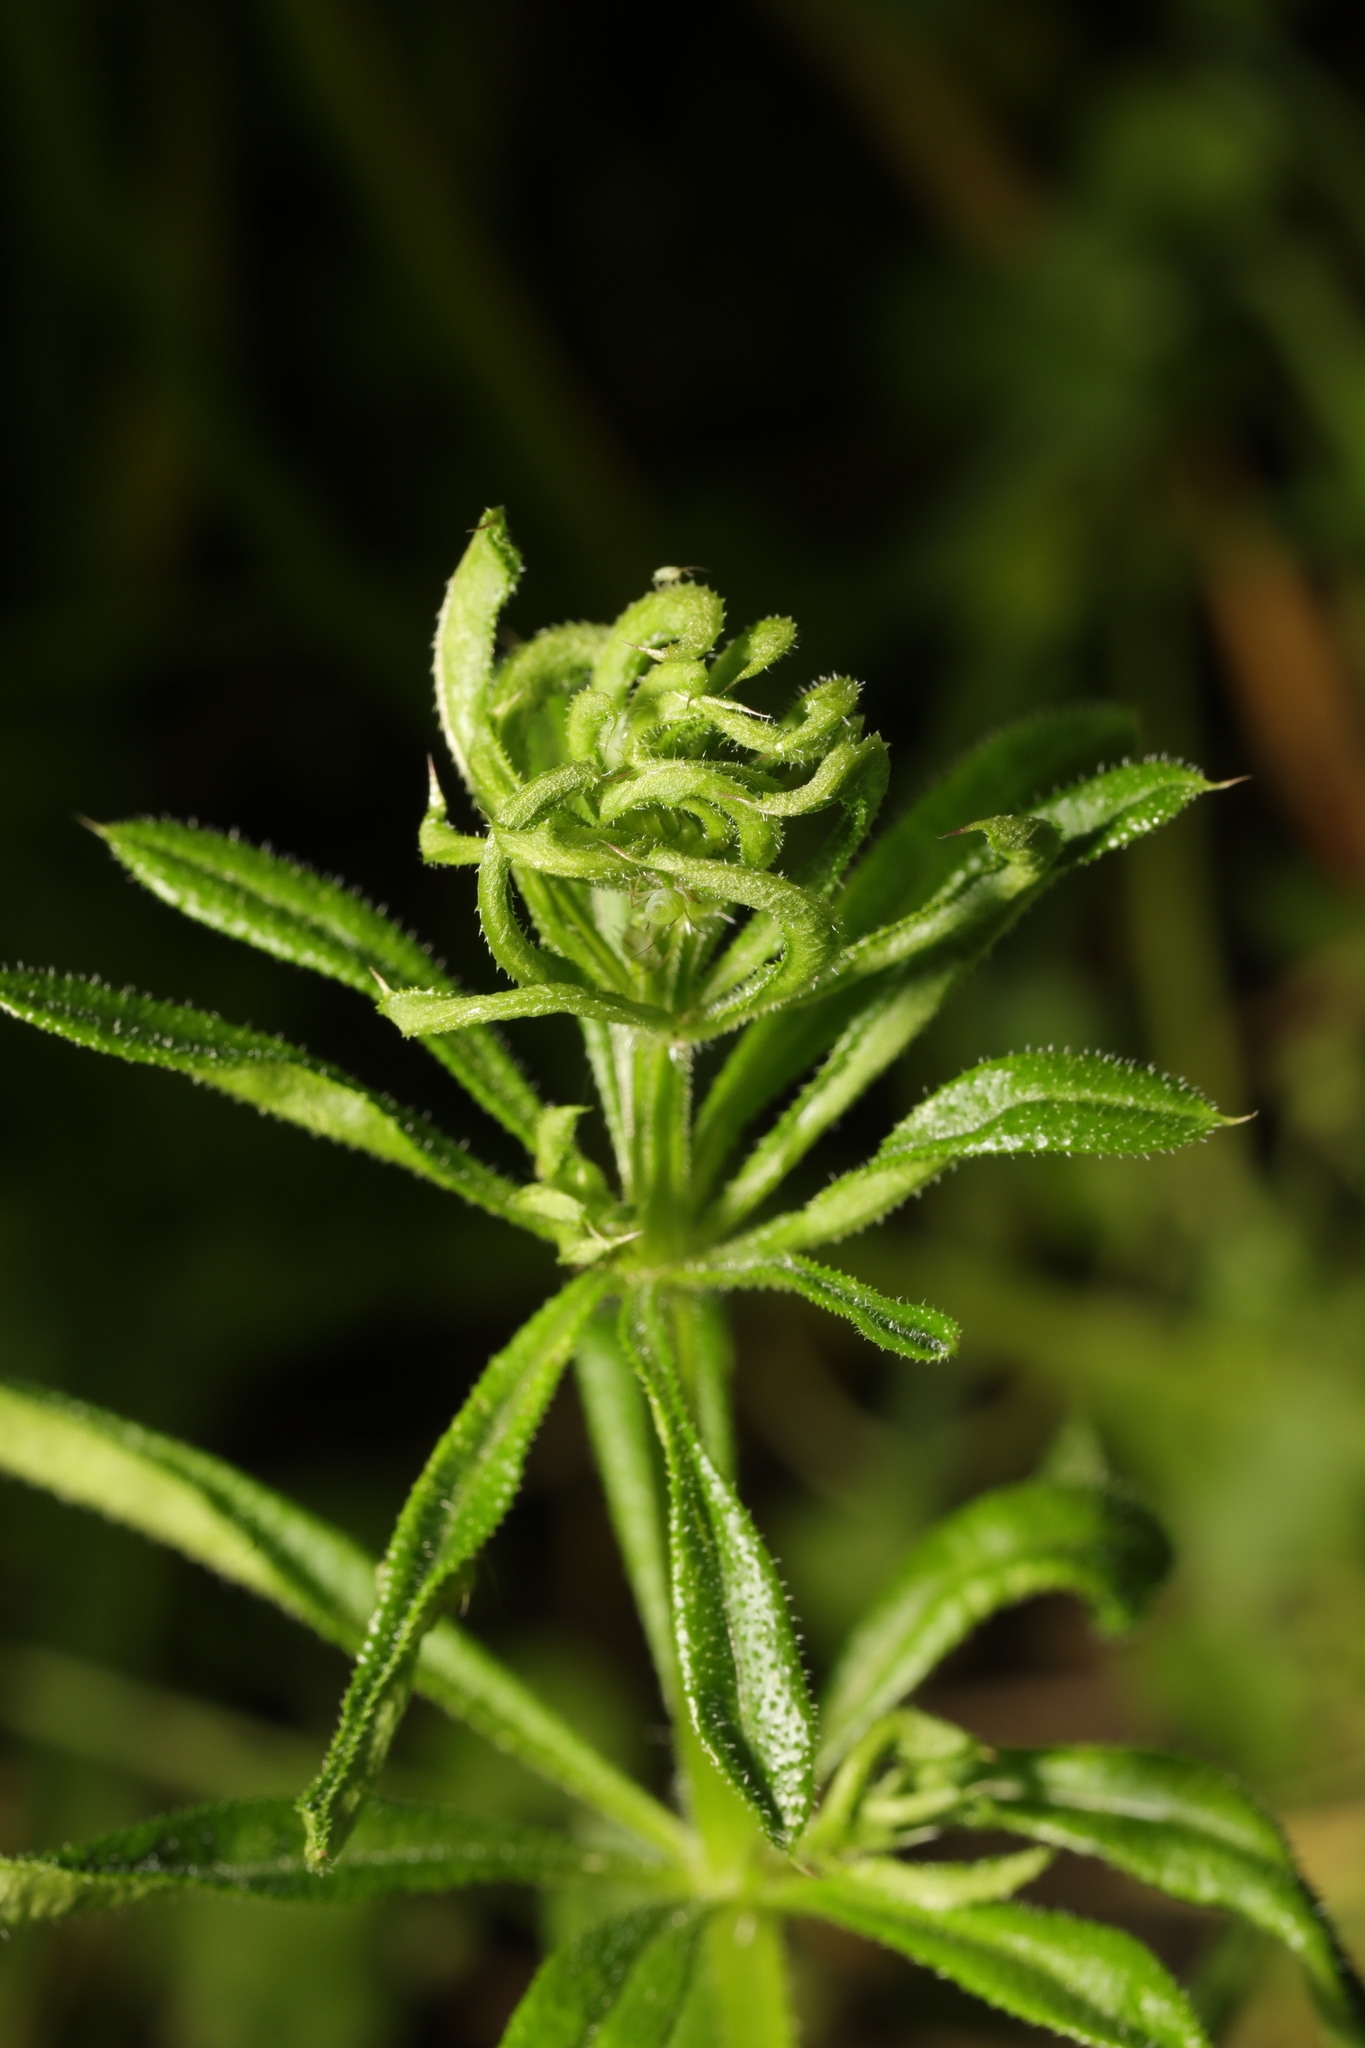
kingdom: Animalia
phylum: Arthropoda
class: Arachnida
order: Trombidiformes
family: Eriophyidae
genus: Cecidophyes
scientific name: Cecidophyes rouhollahi
